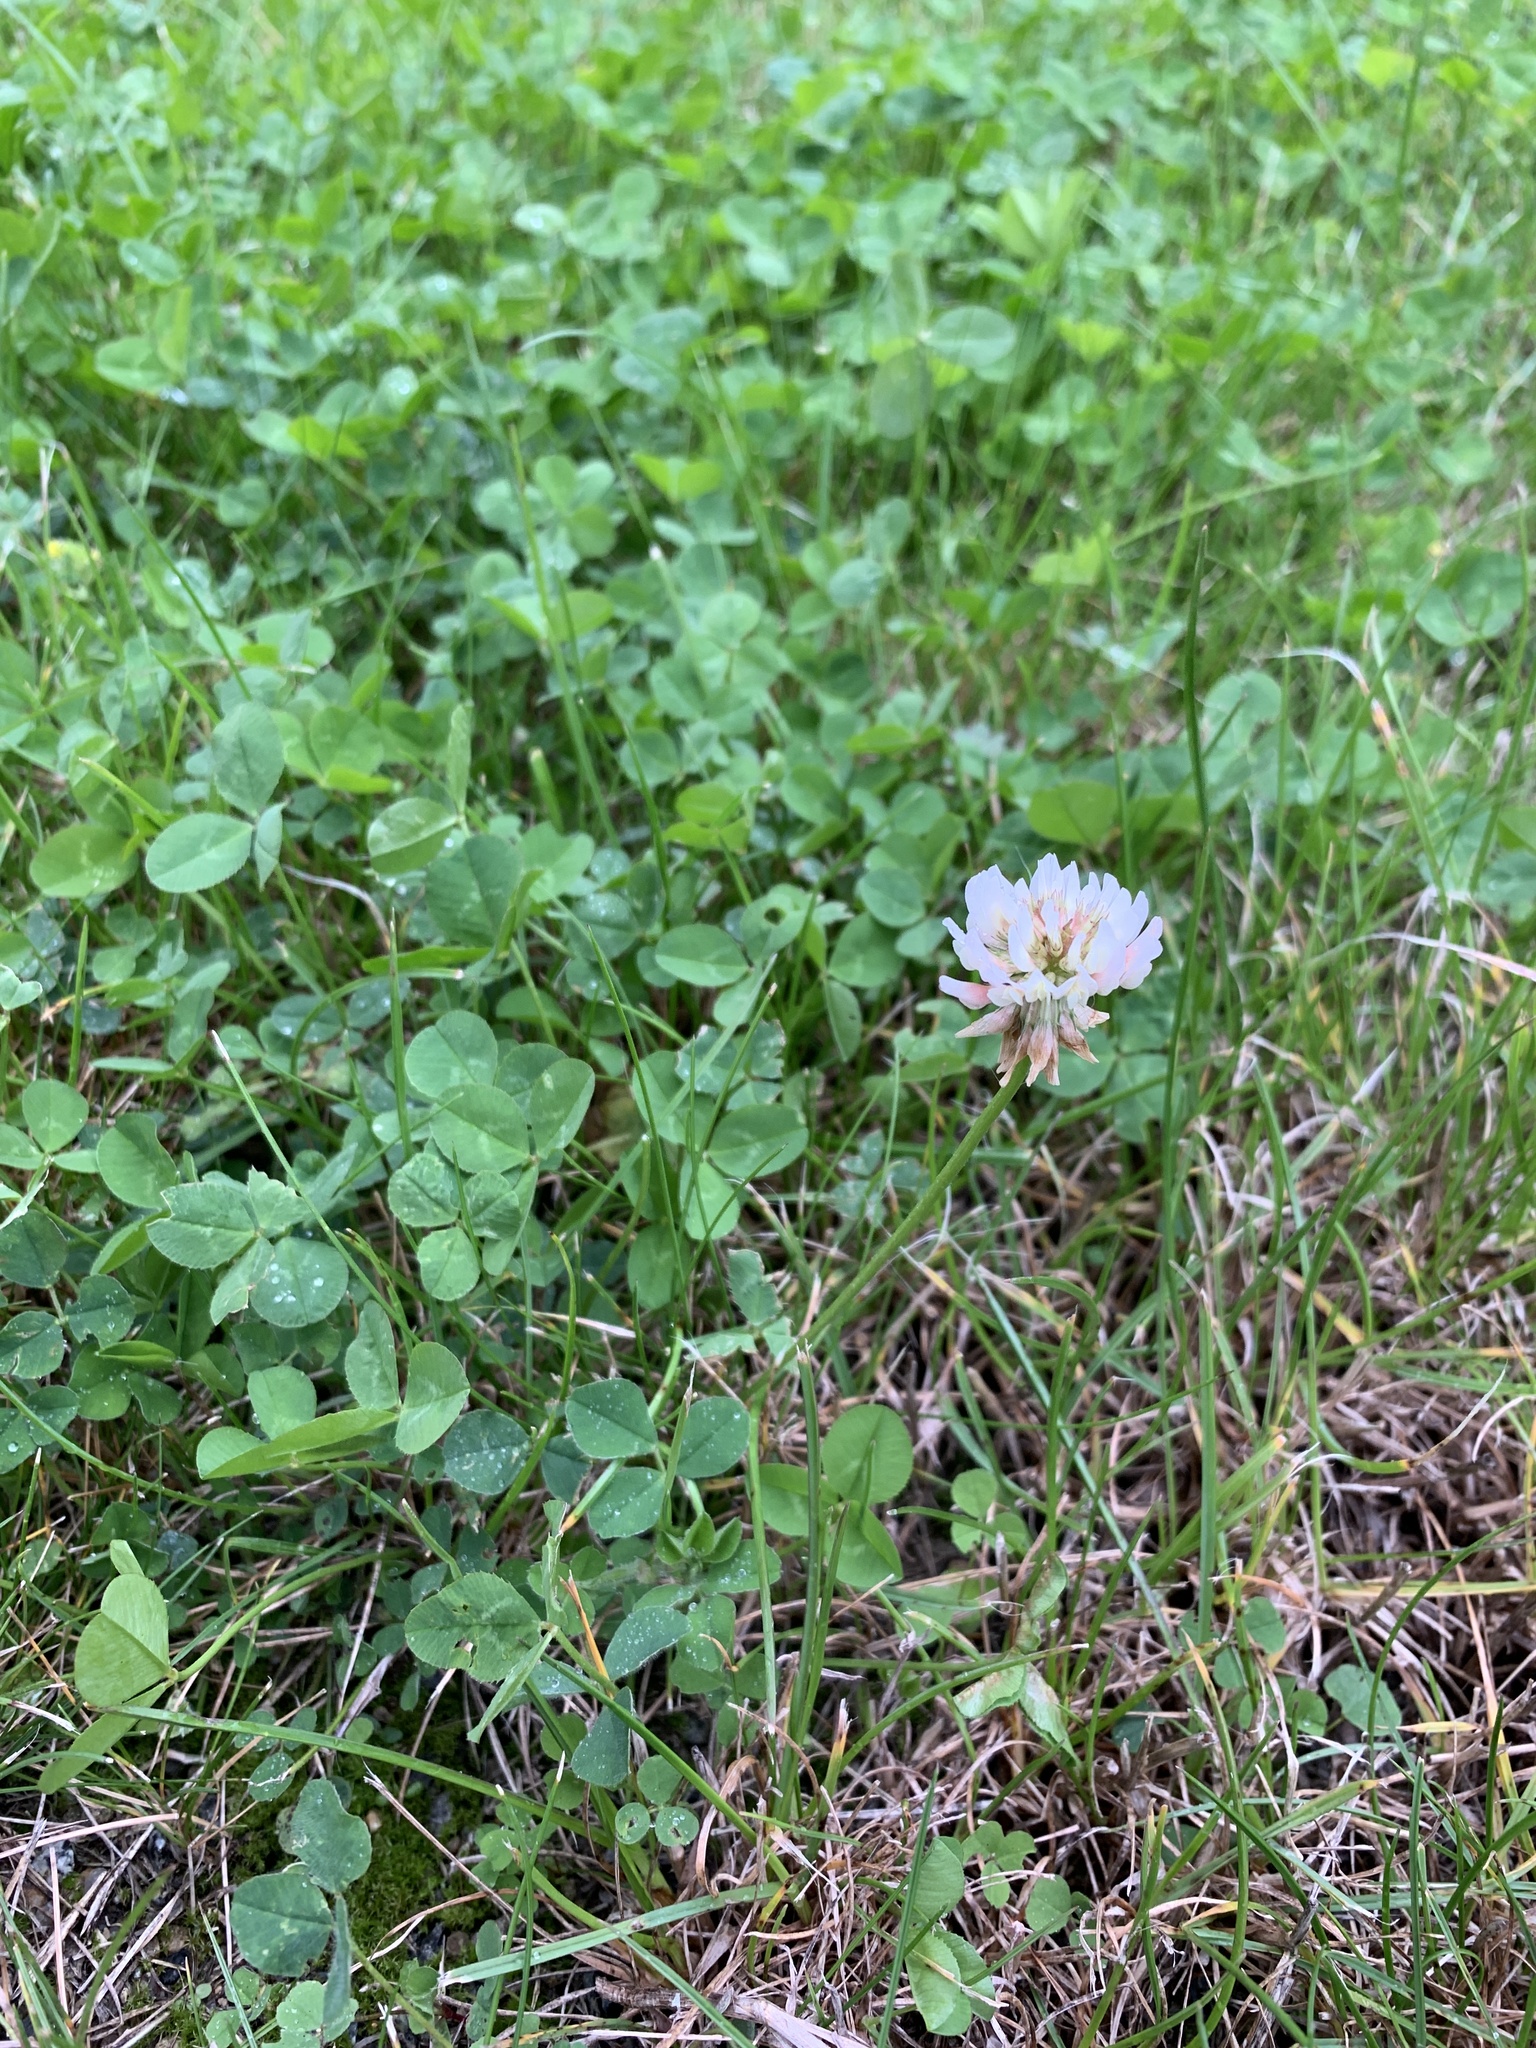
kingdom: Plantae
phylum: Tracheophyta
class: Magnoliopsida
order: Fabales
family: Fabaceae
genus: Trifolium
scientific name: Trifolium repens
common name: White clover
